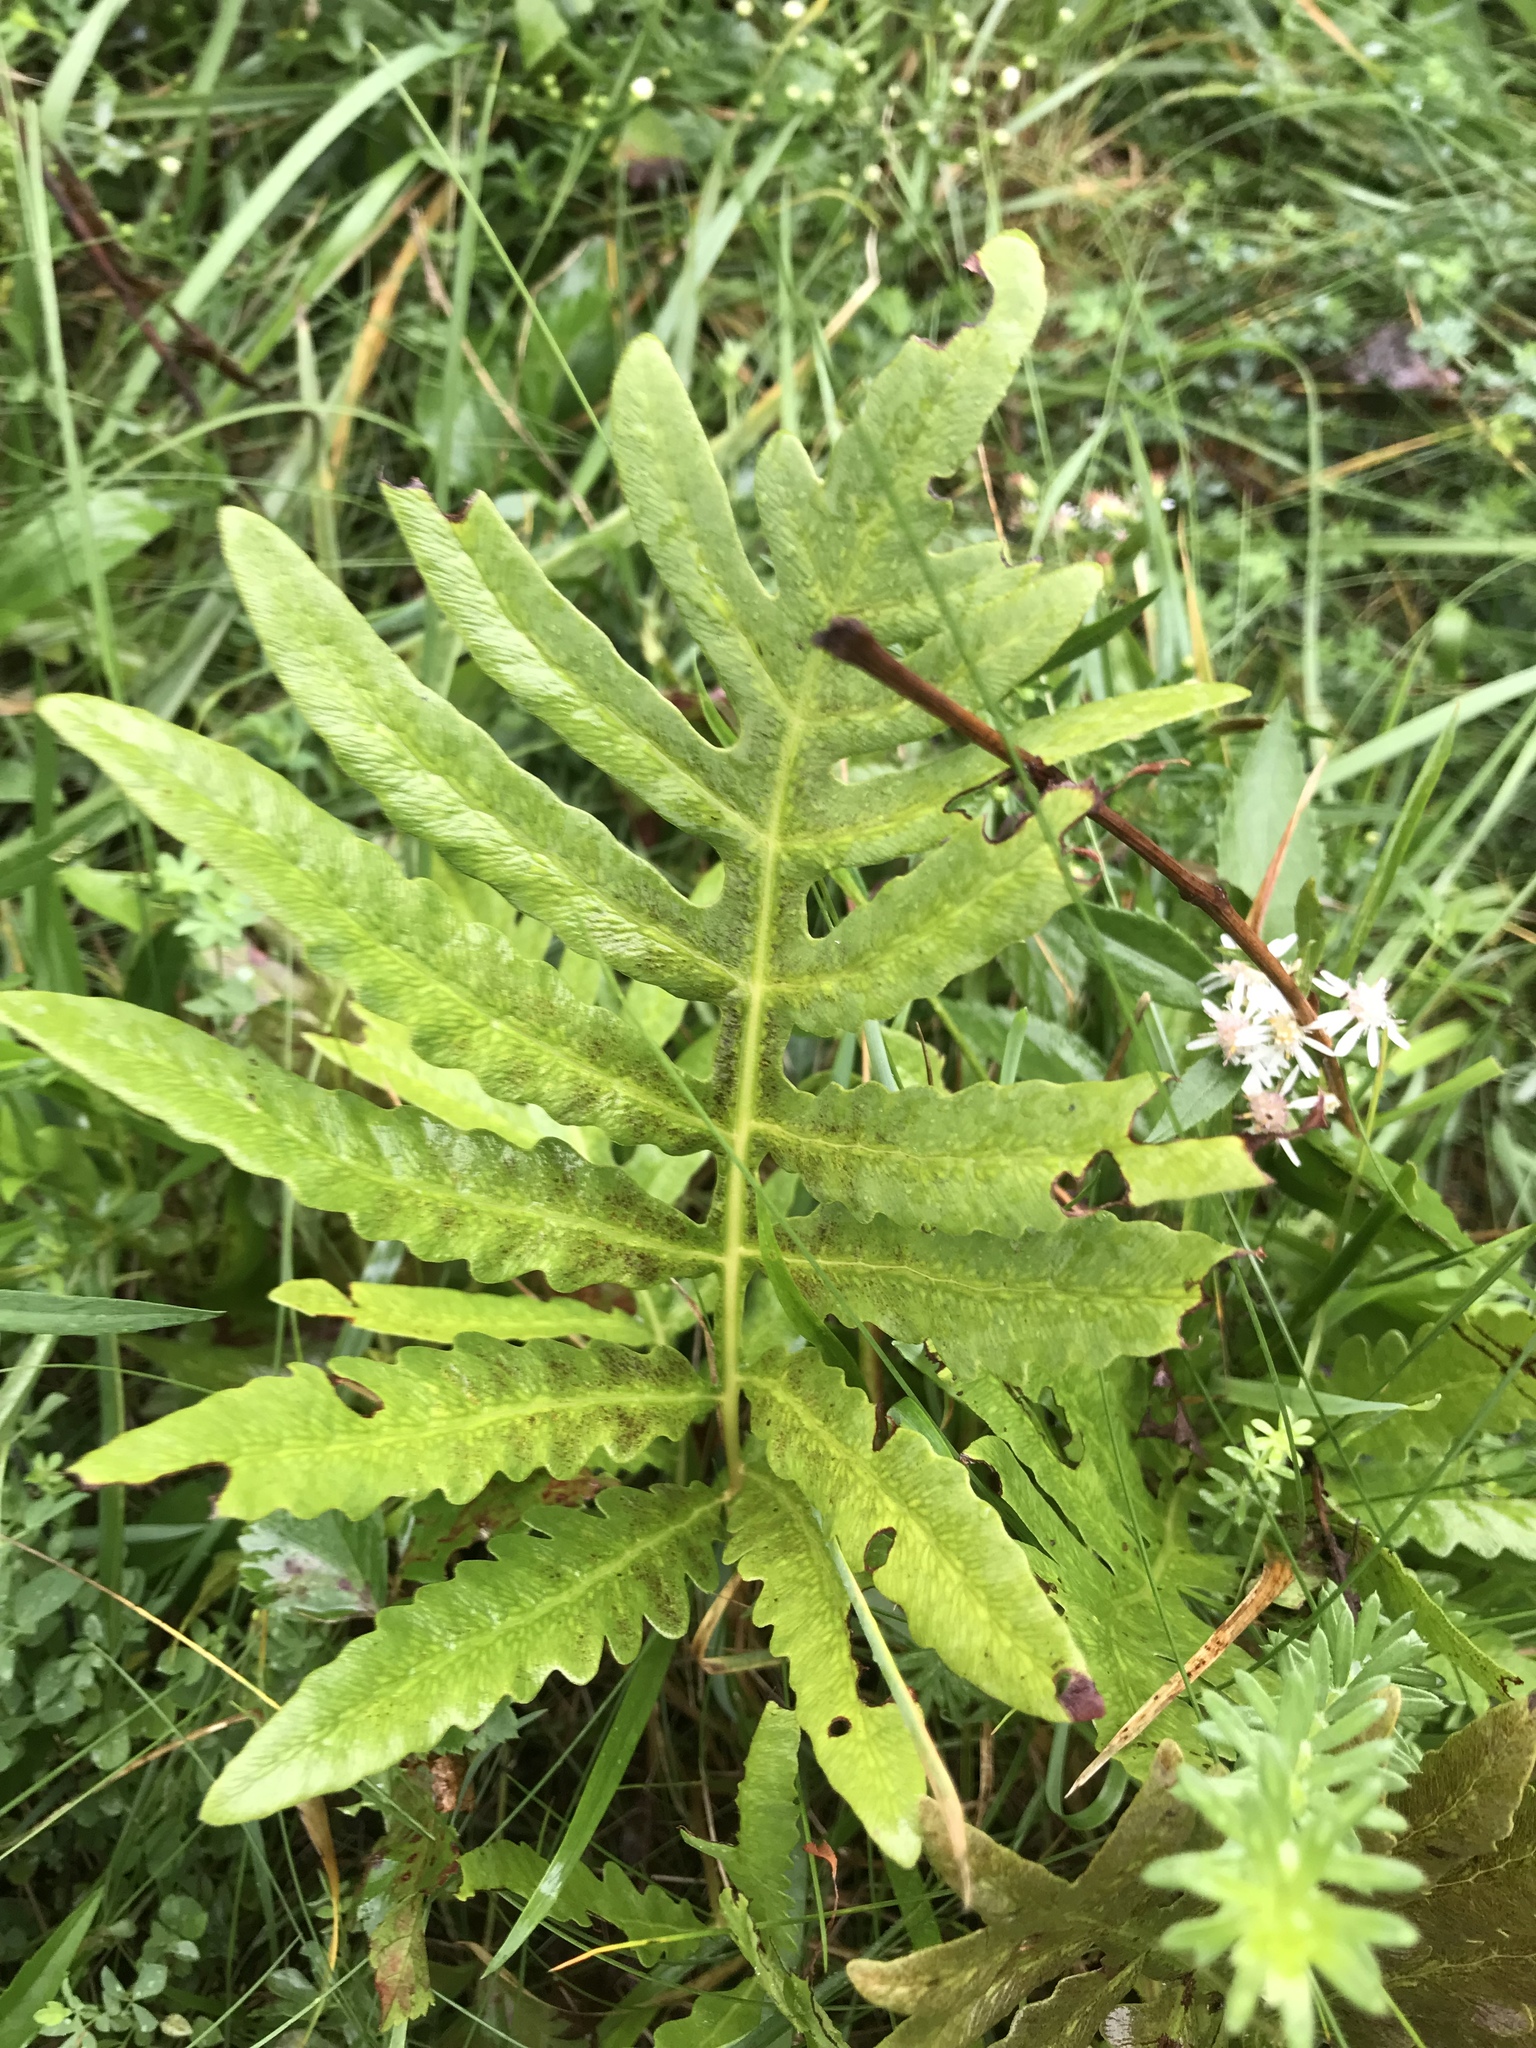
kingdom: Plantae
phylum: Tracheophyta
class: Polypodiopsida
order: Polypodiales
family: Onocleaceae
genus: Onoclea
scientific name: Onoclea sensibilis
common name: Sensitive fern
